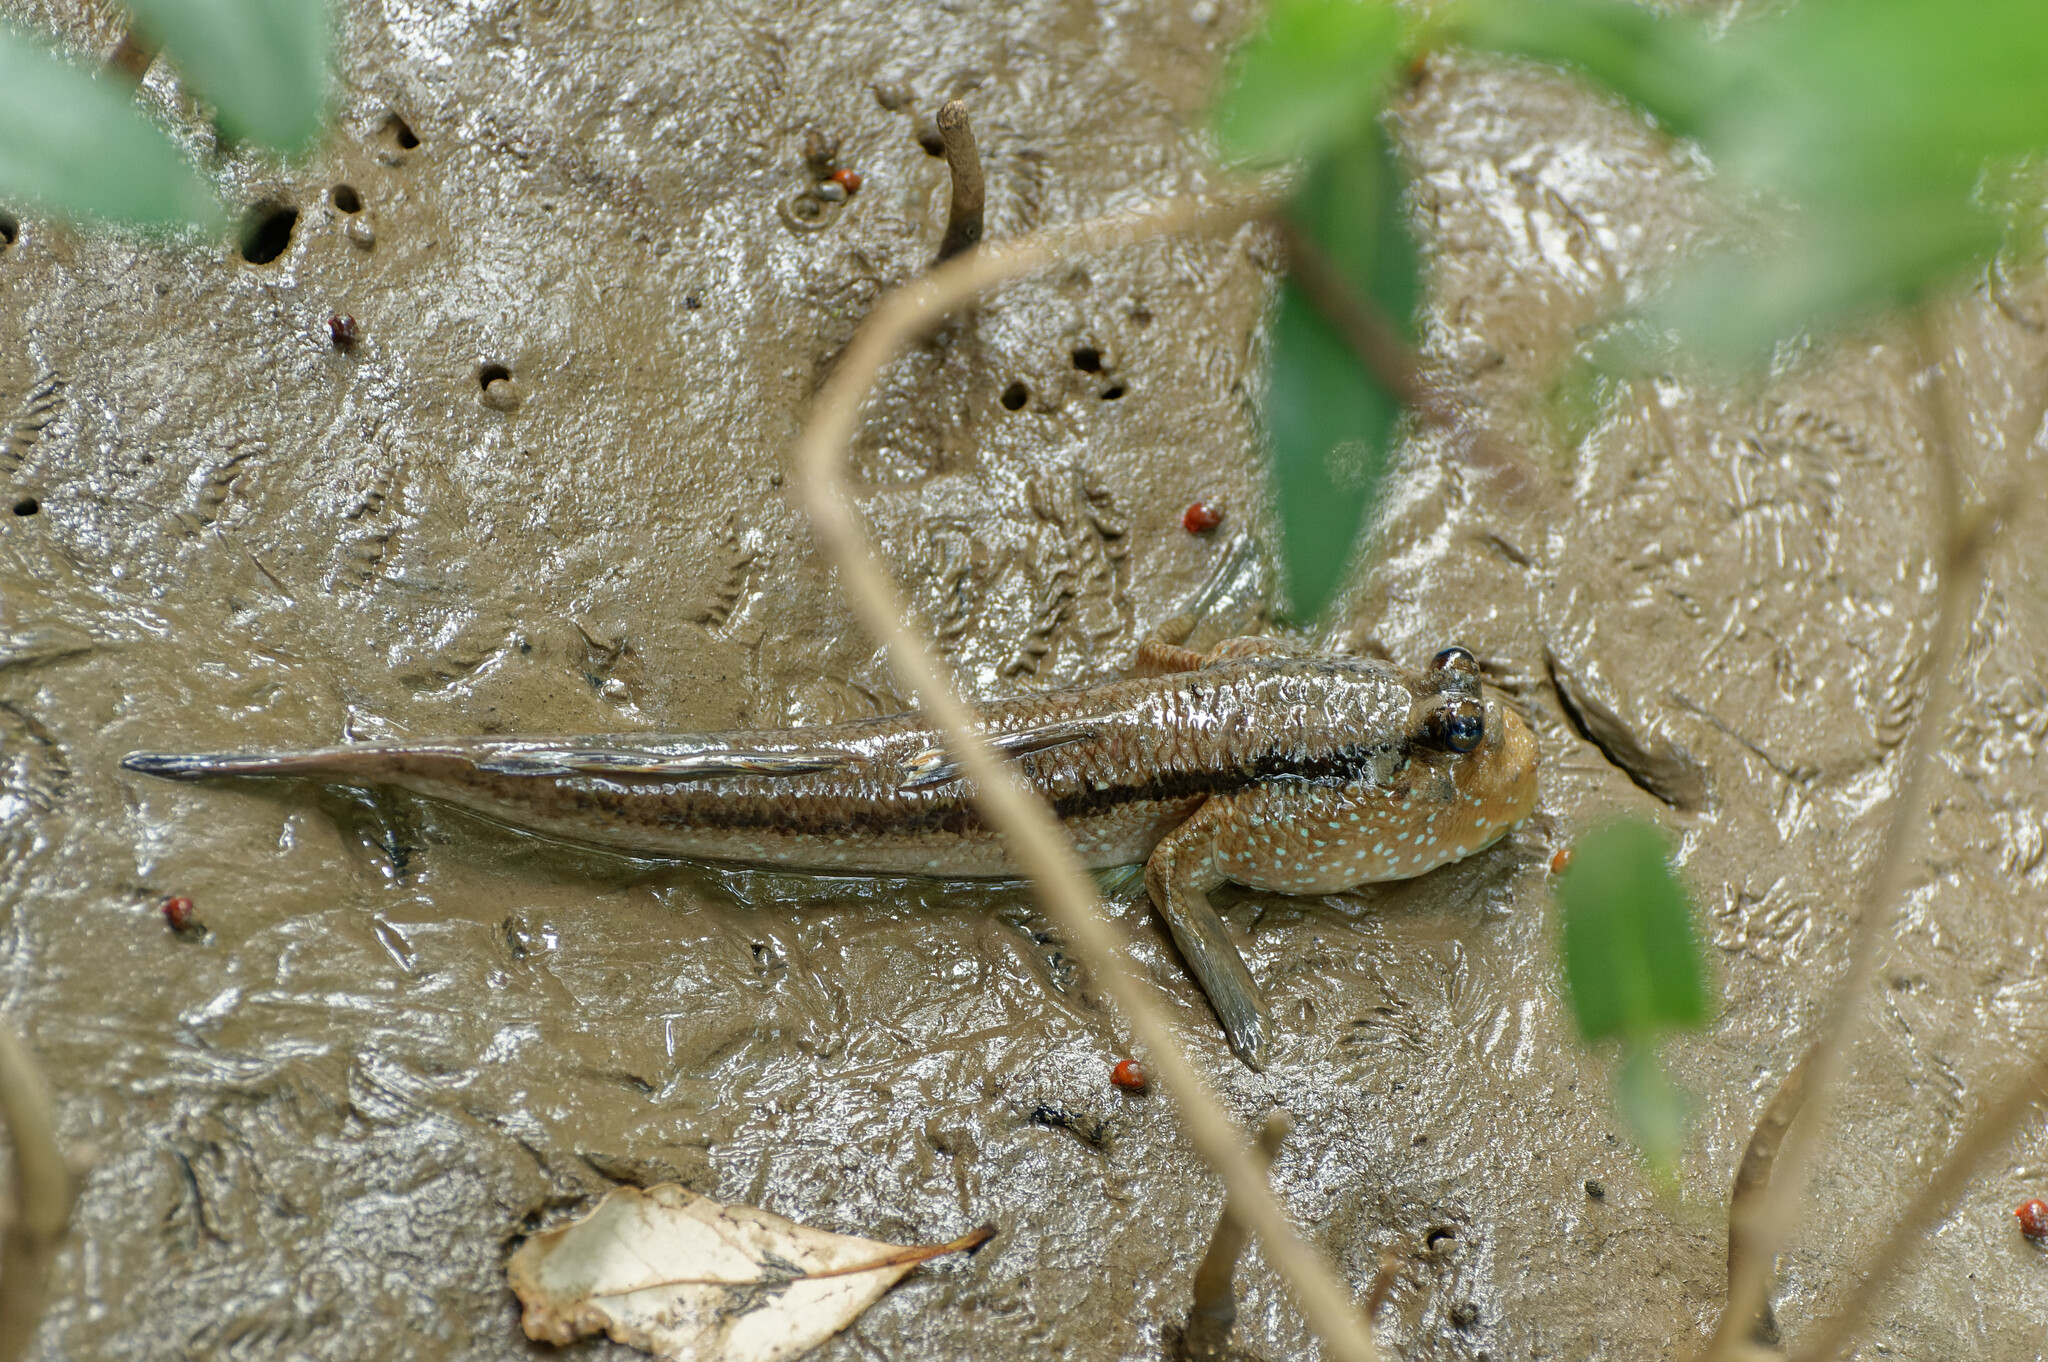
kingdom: Animalia
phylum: Chordata
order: Perciformes
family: Gobiidae
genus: Periophthalmodon
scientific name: Periophthalmodon schlosseri
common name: Giant mudskipper
